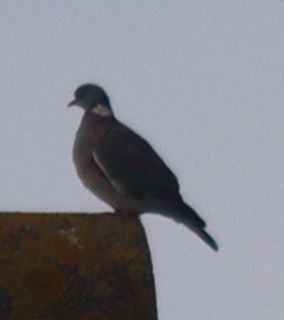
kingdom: Animalia
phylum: Chordata
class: Aves
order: Columbiformes
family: Columbidae
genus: Columba
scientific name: Columba palumbus
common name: Common wood pigeon
